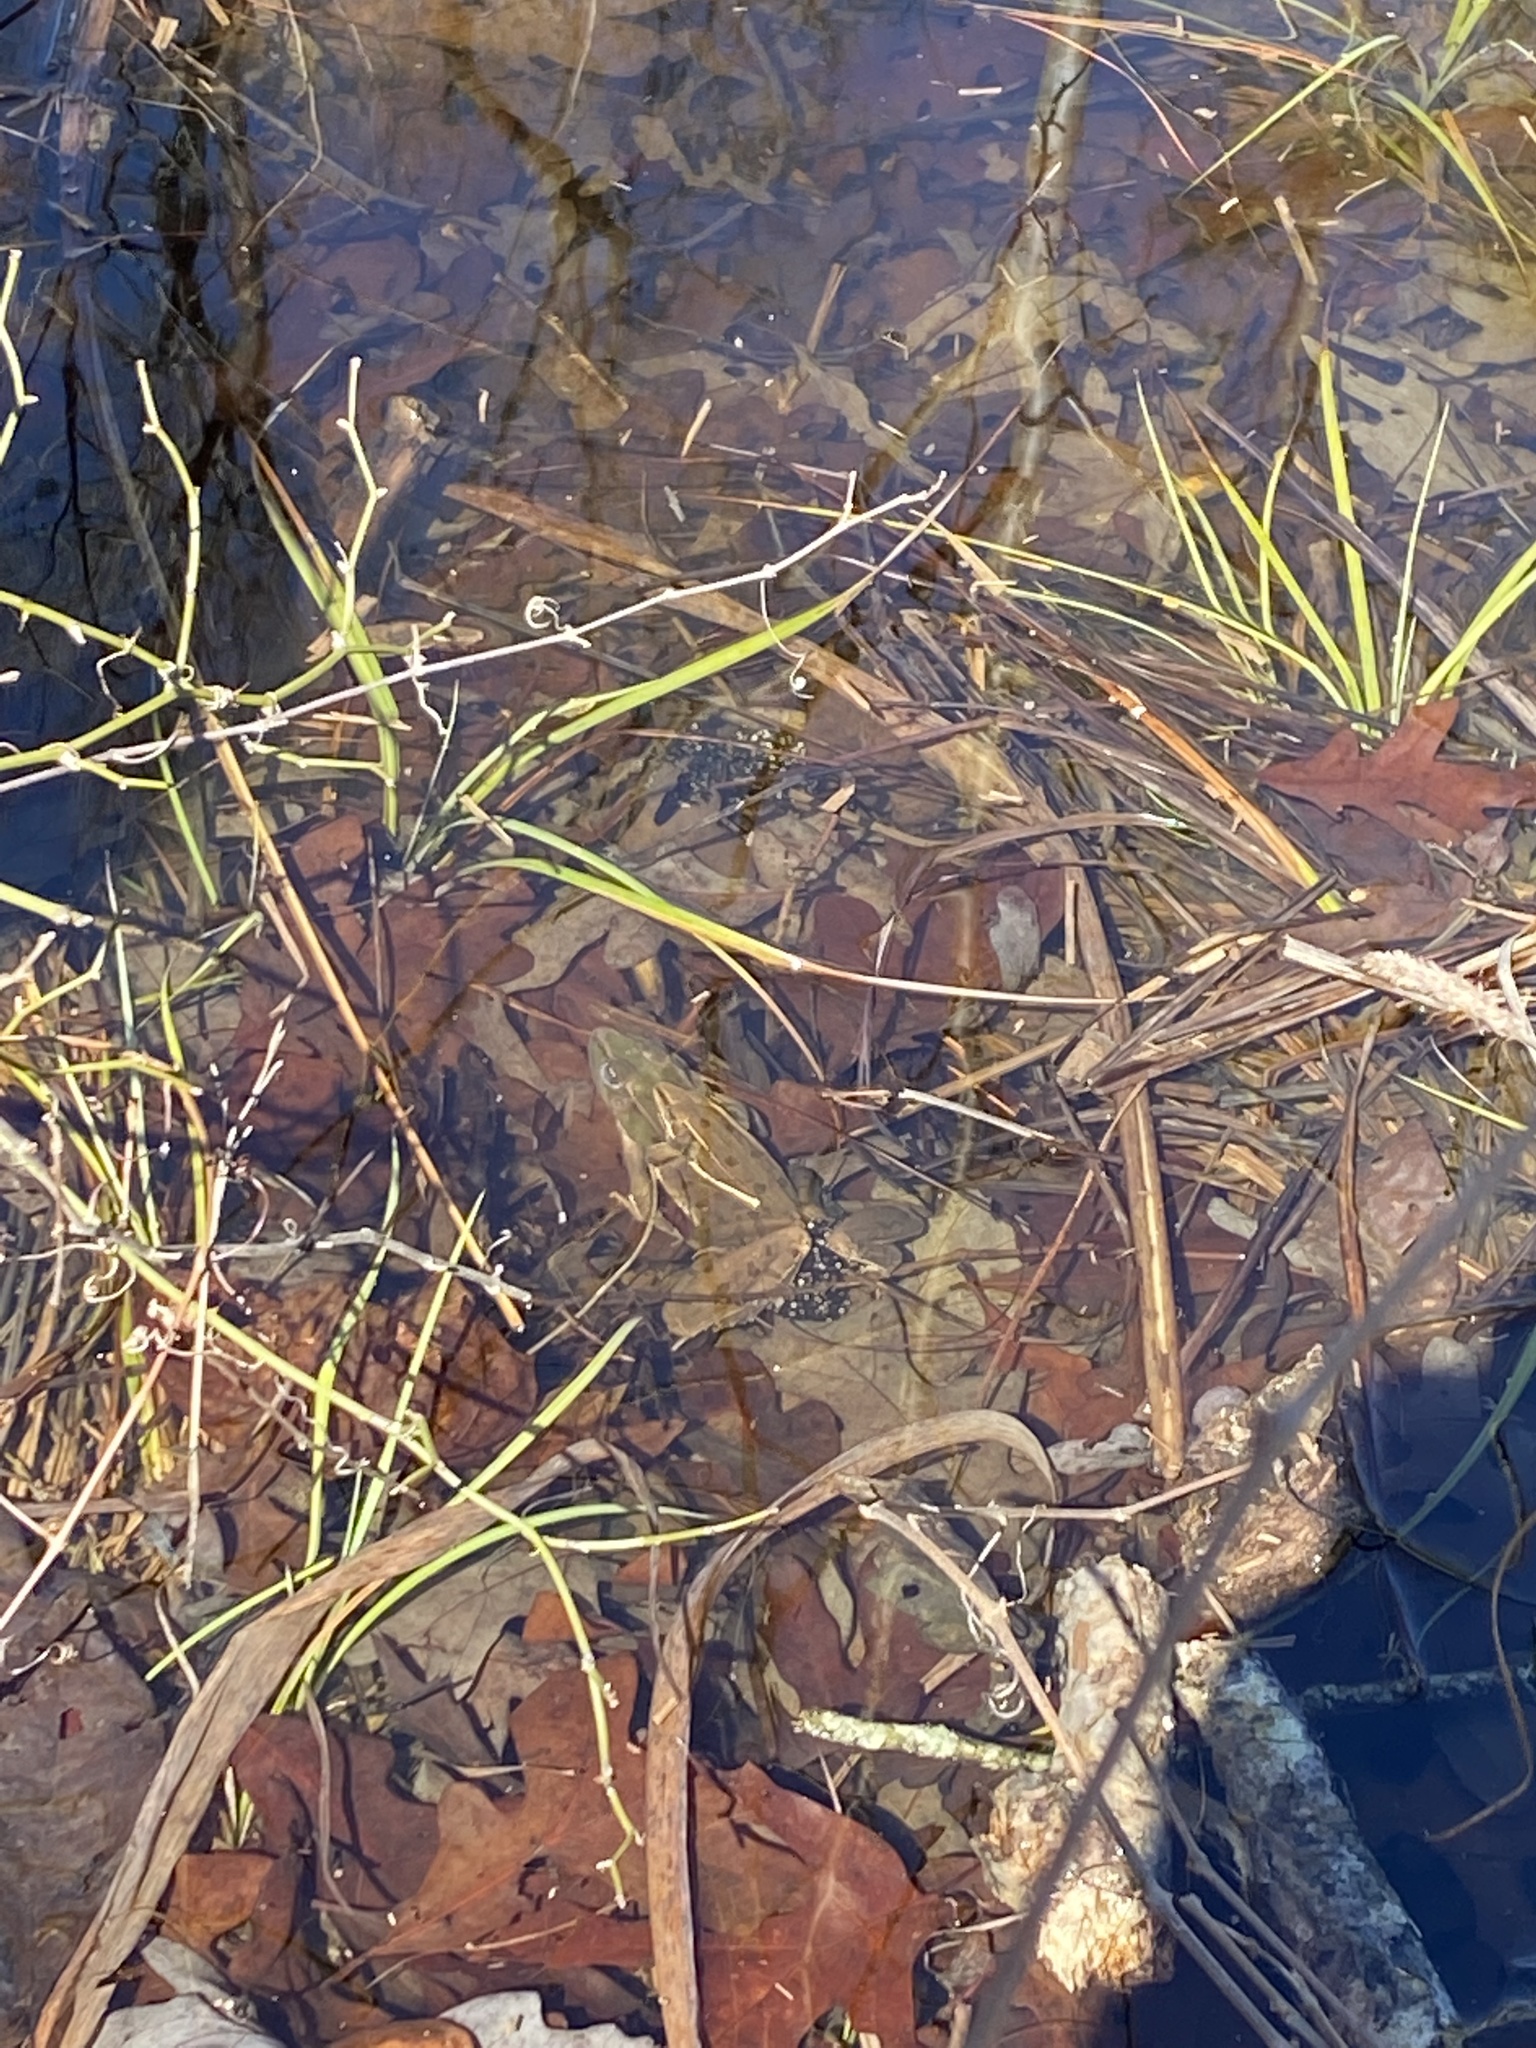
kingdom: Animalia
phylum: Chordata
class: Amphibia
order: Anura
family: Ranidae
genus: Lithobates
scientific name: Lithobates sphenocephalus
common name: Southern leopard frog
